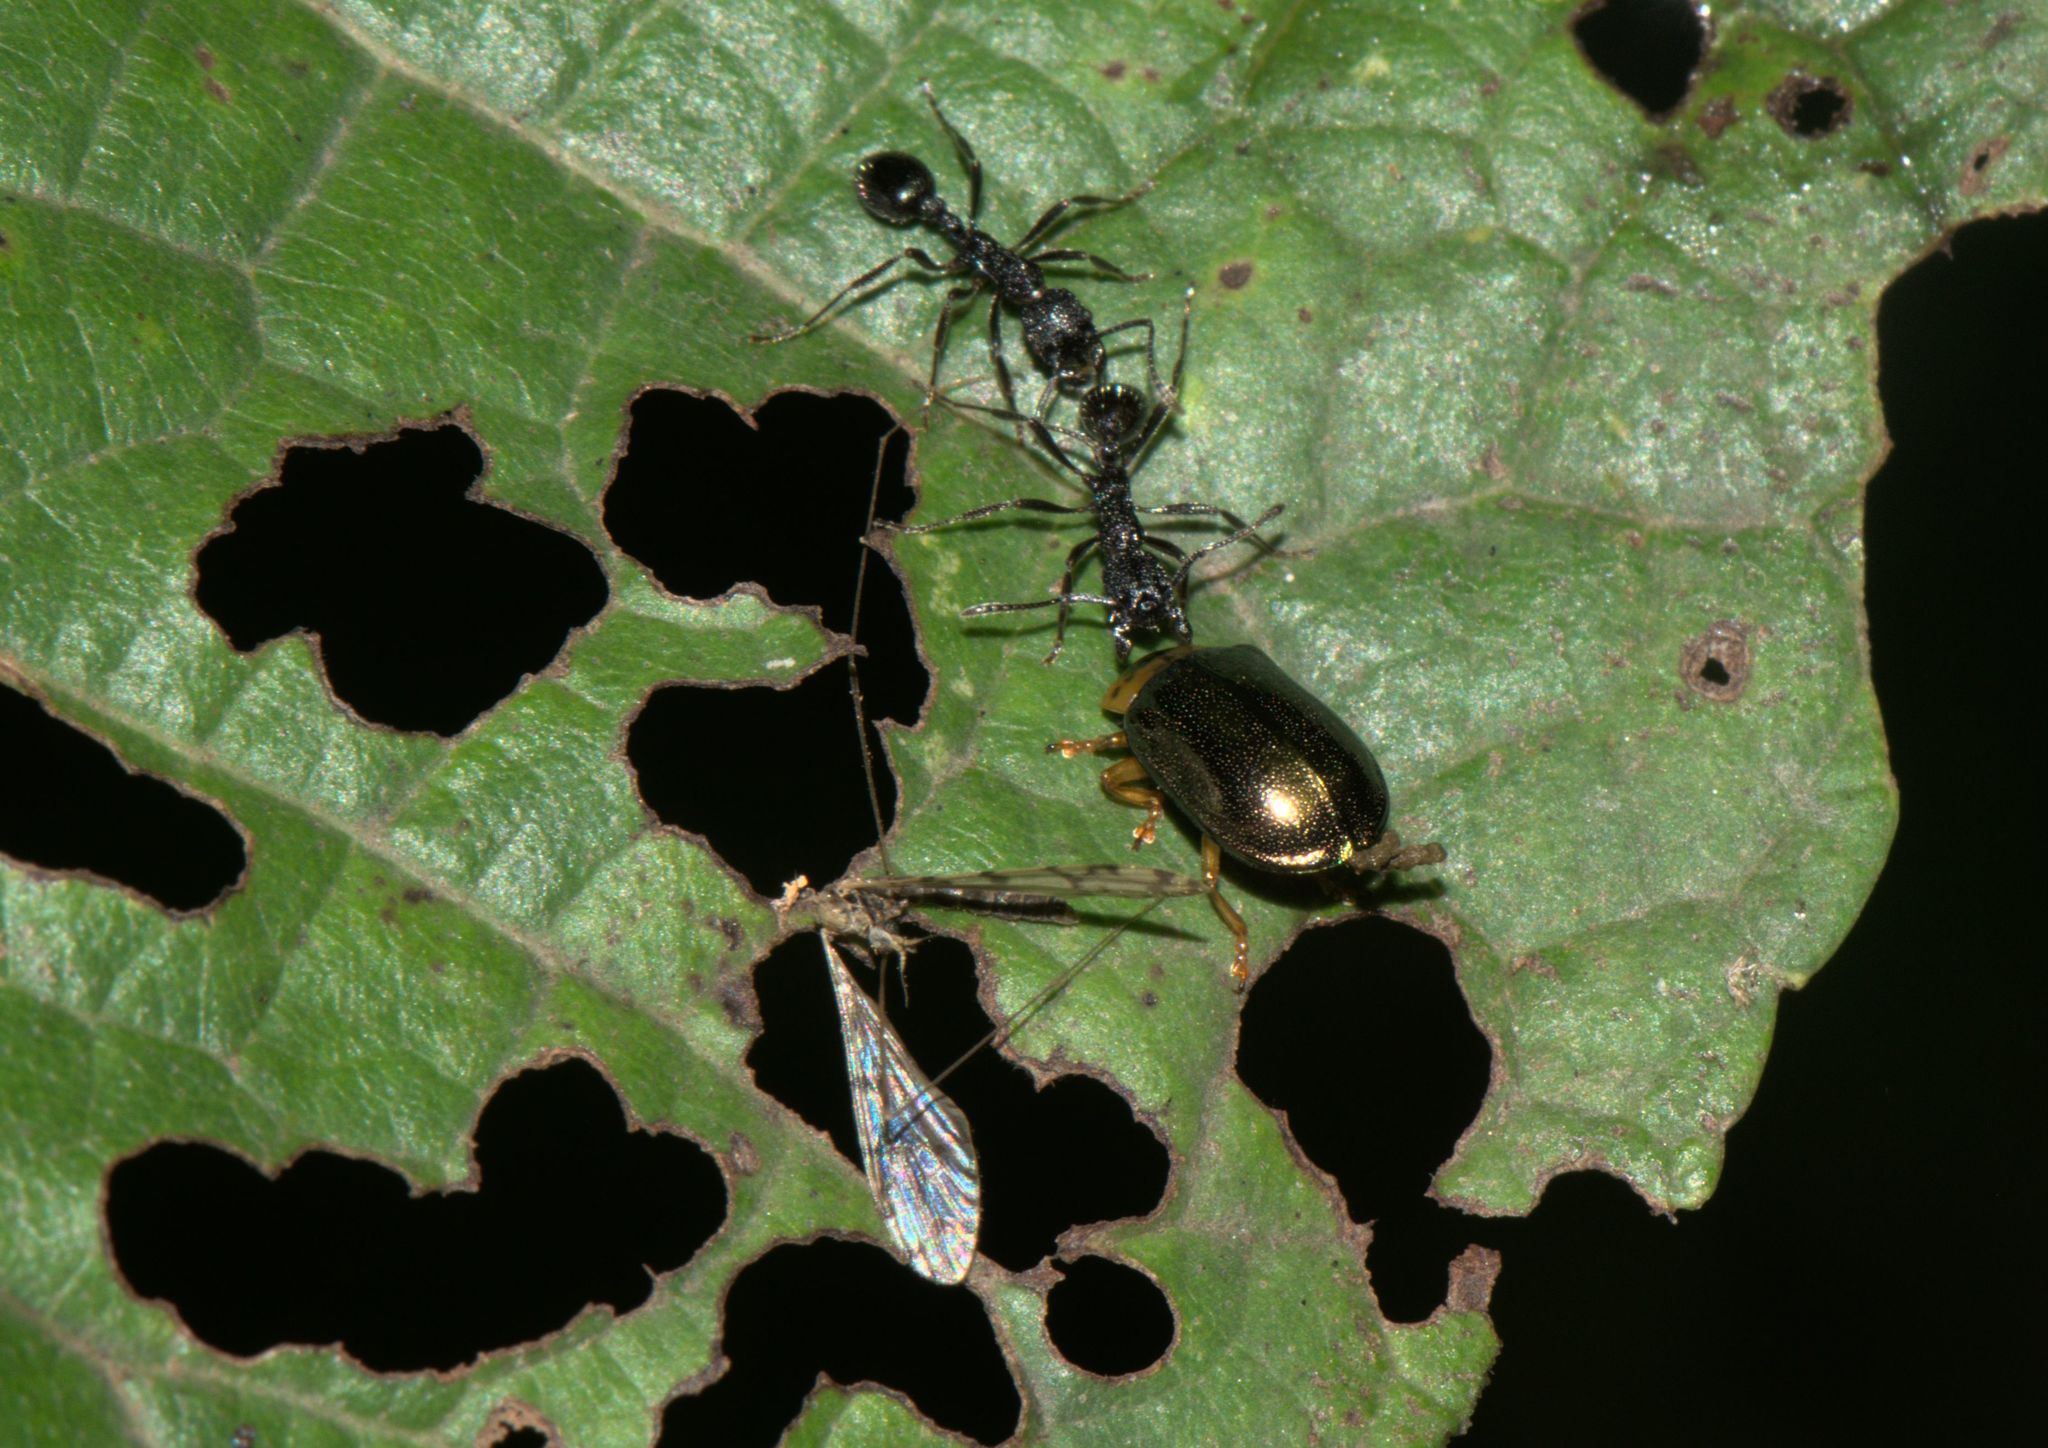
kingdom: Animalia
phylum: Arthropoda
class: Insecta
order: Coleoptera
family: Chrysomelidae
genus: Plagiosterna
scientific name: Plagiosterna
